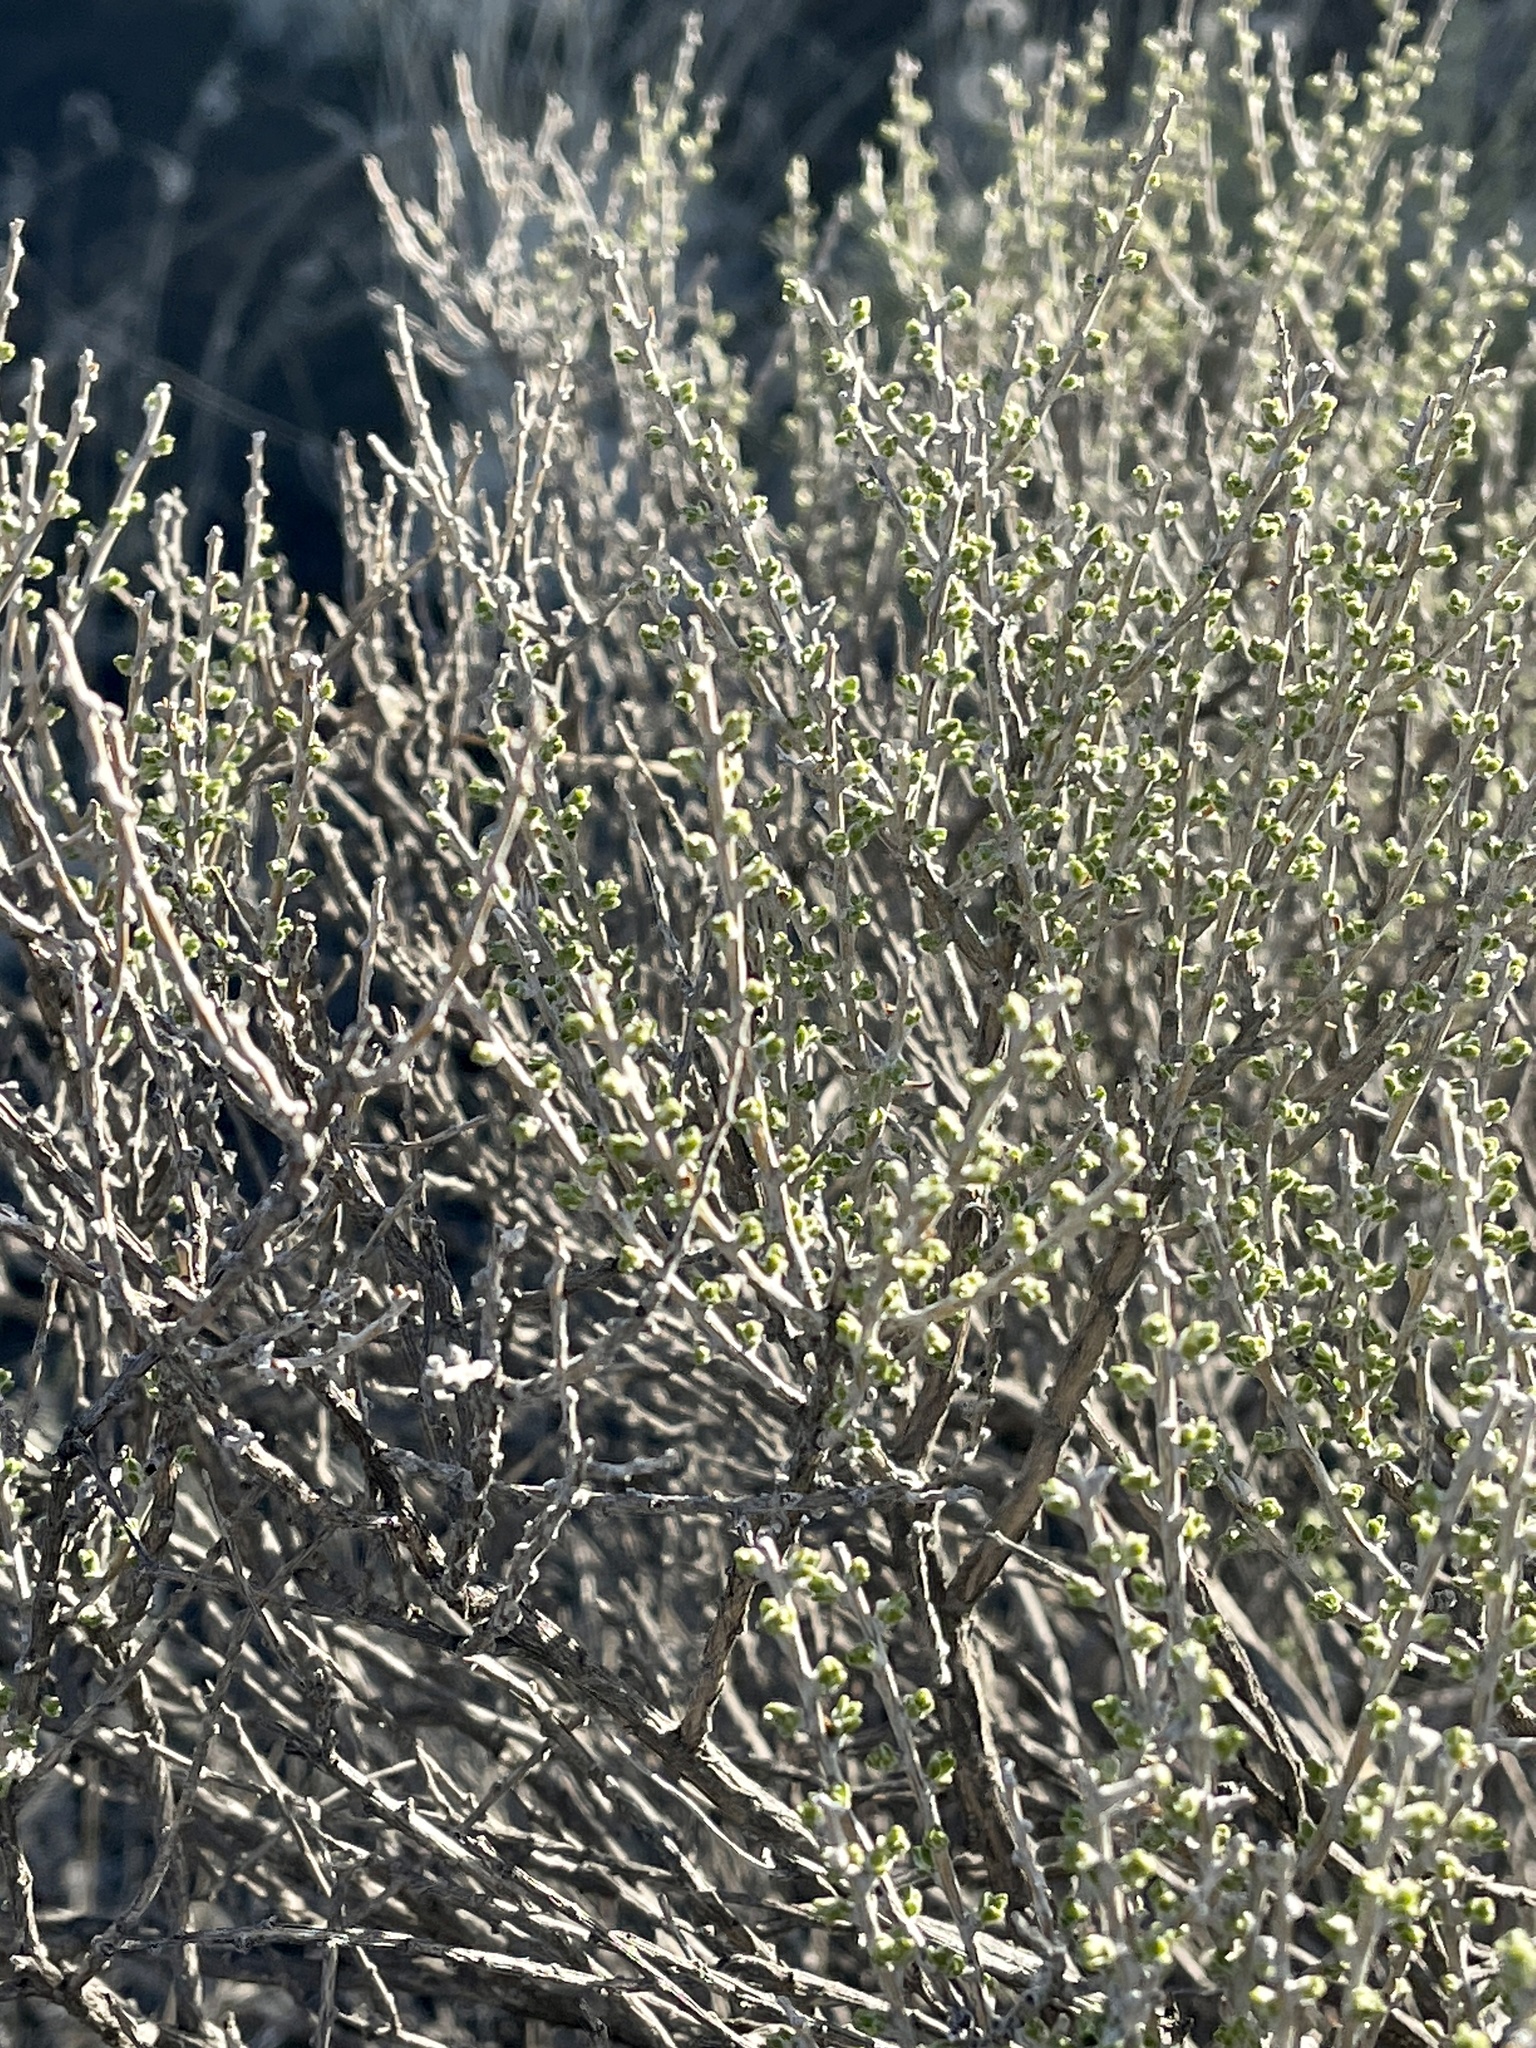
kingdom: Plantae
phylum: Tracheophyta
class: Magnoliopsida
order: Asterales
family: Asteraceae
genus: Tetradymia
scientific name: Tetradymia canescens
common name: Spineless horsebrush
